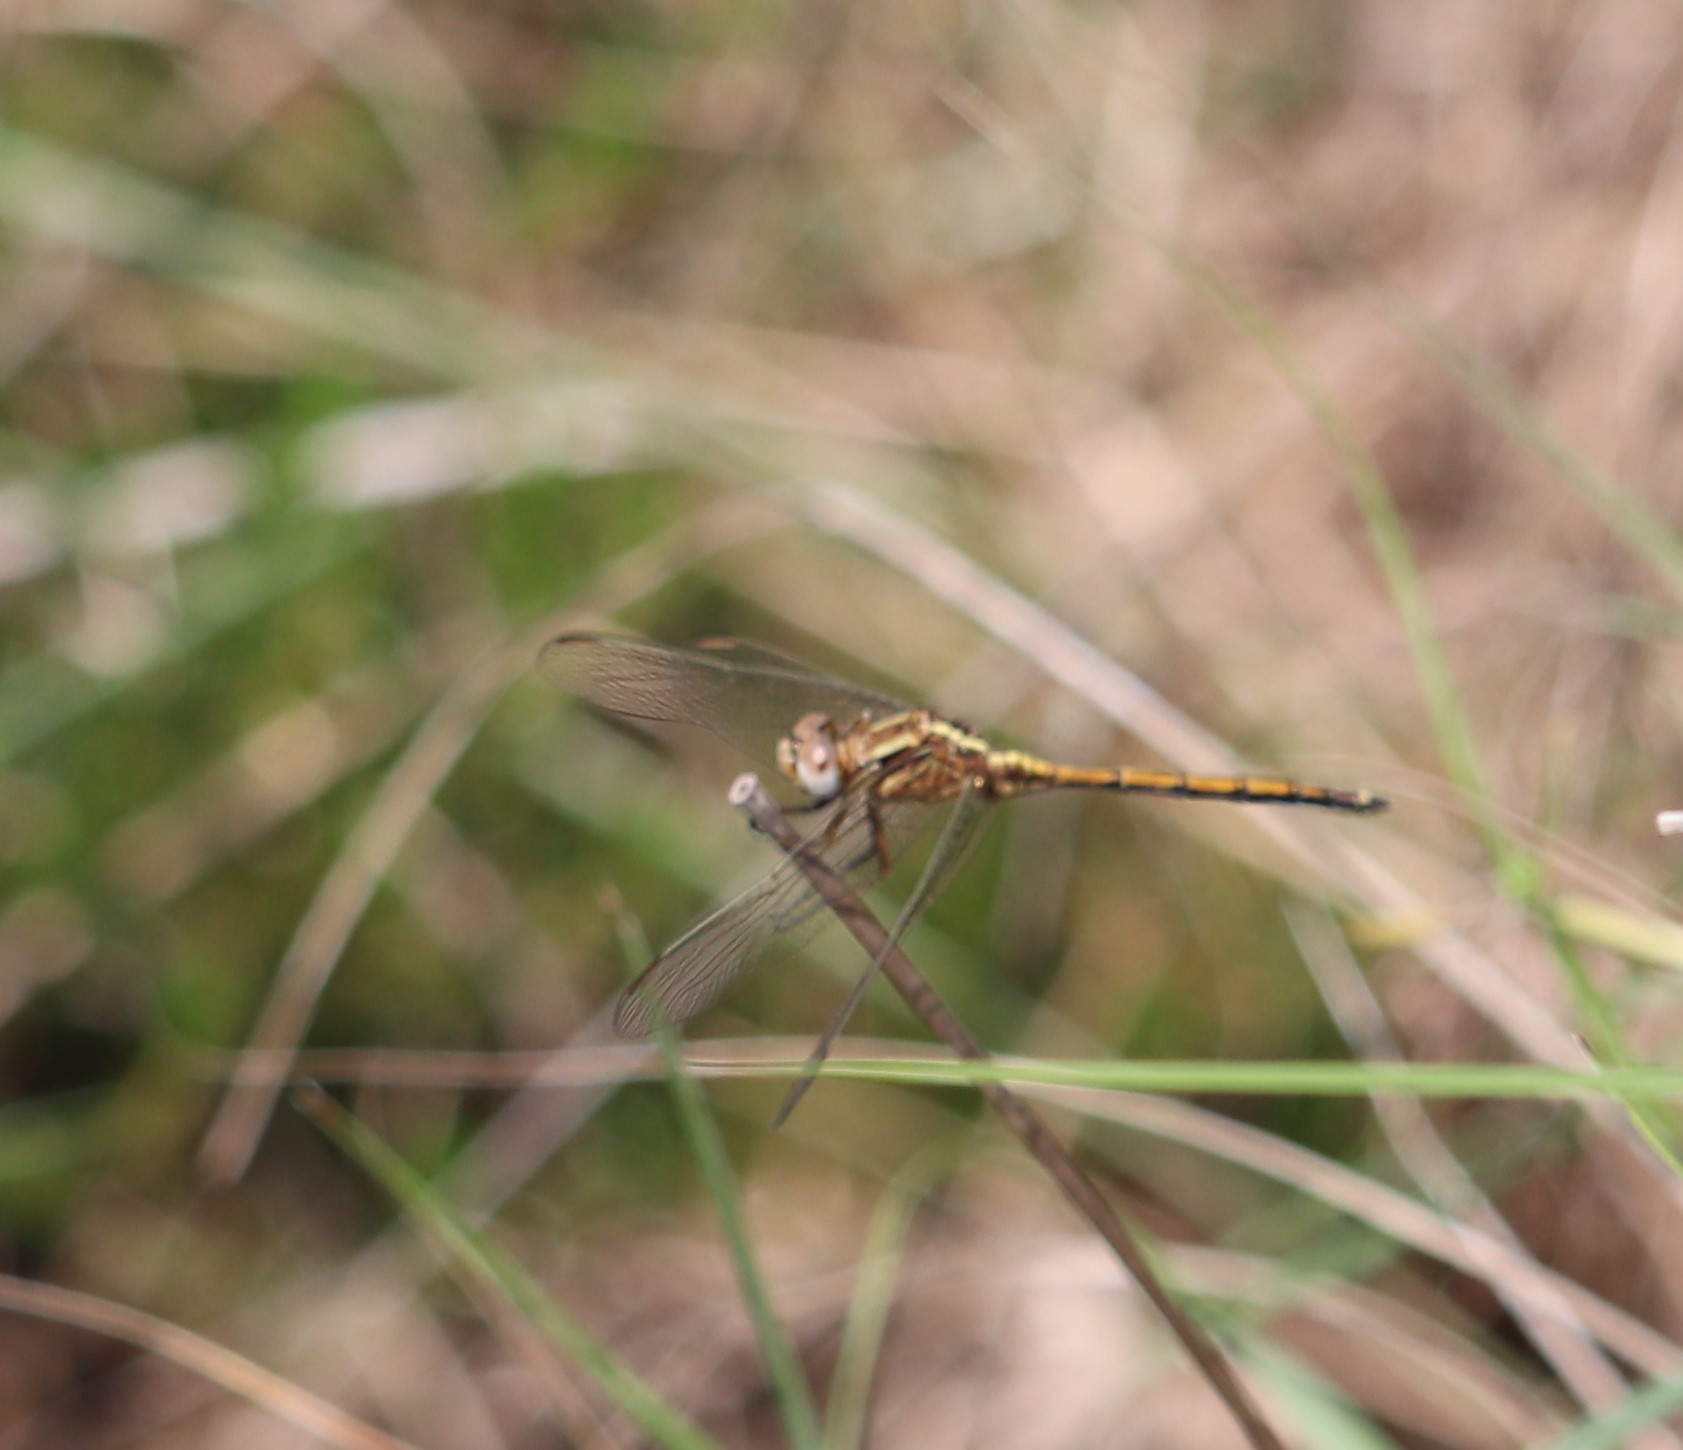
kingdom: Animalia
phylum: Arthropoda
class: Insecta
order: Odonata
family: Libellulidae
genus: Orthetrum
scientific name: Orthetrum machadoi
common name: Highland skimmer
